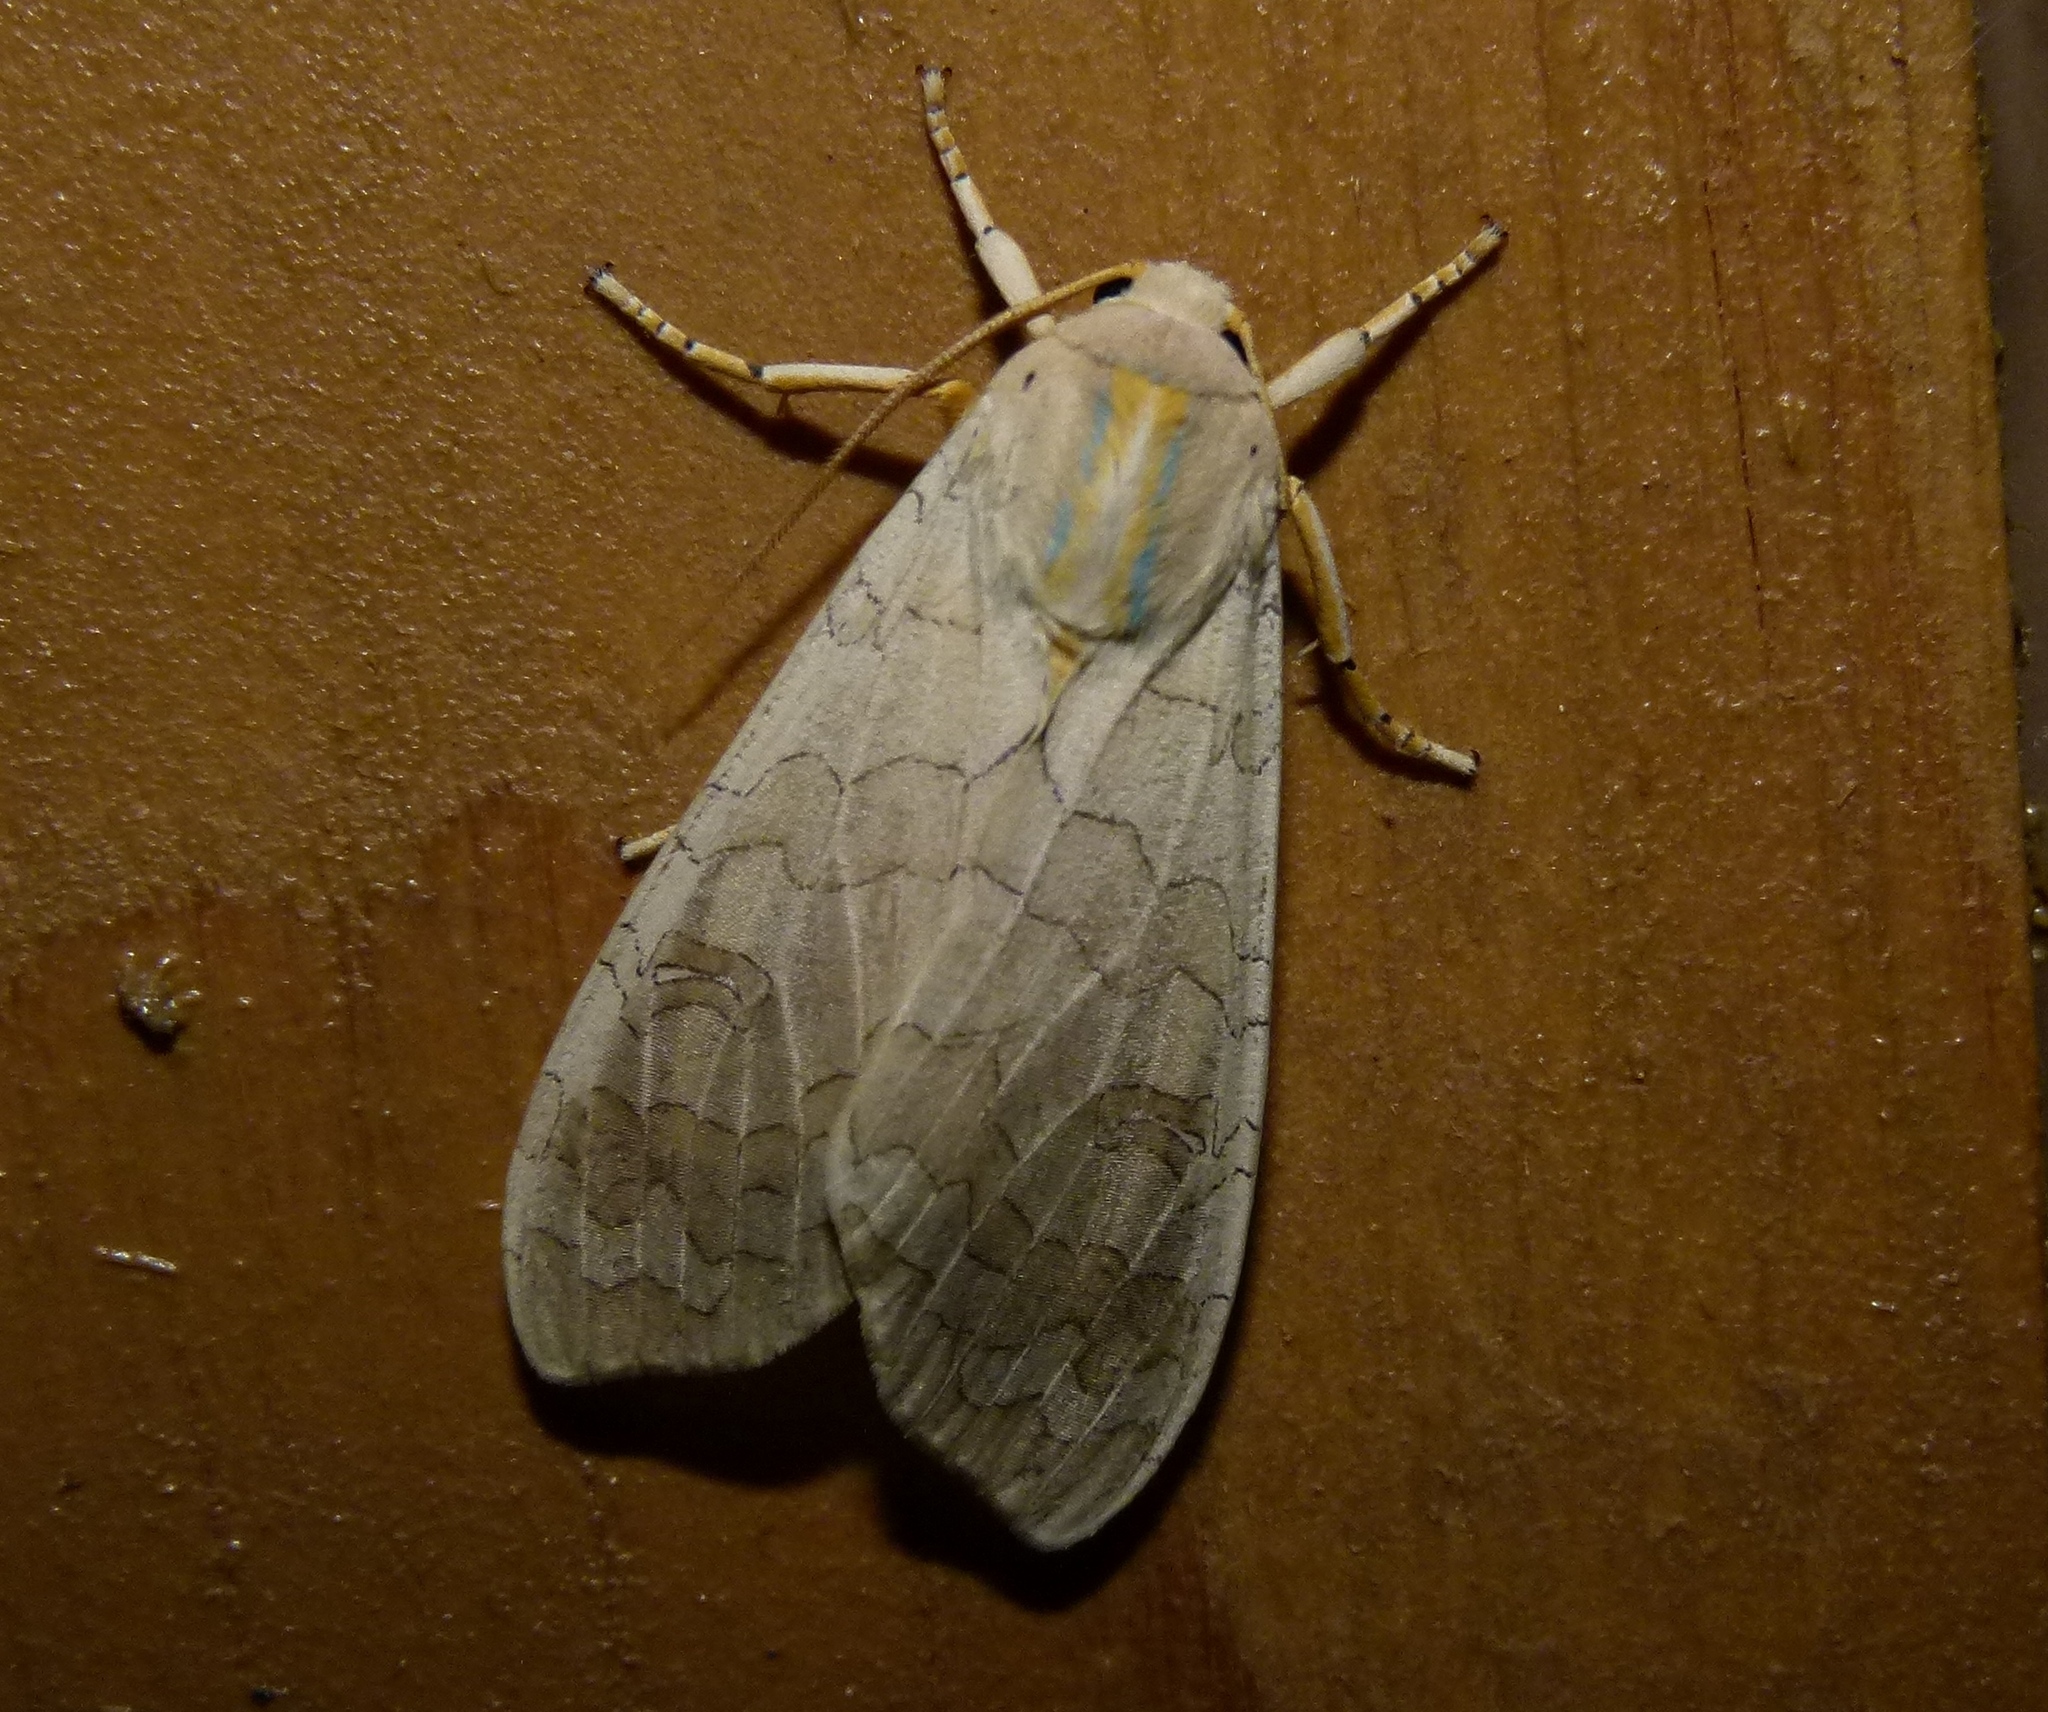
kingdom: Animalia
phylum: Arthropoda
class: Insecta
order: Lepidoptera
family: Erebidae
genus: Halysidota
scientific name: Halysidota
